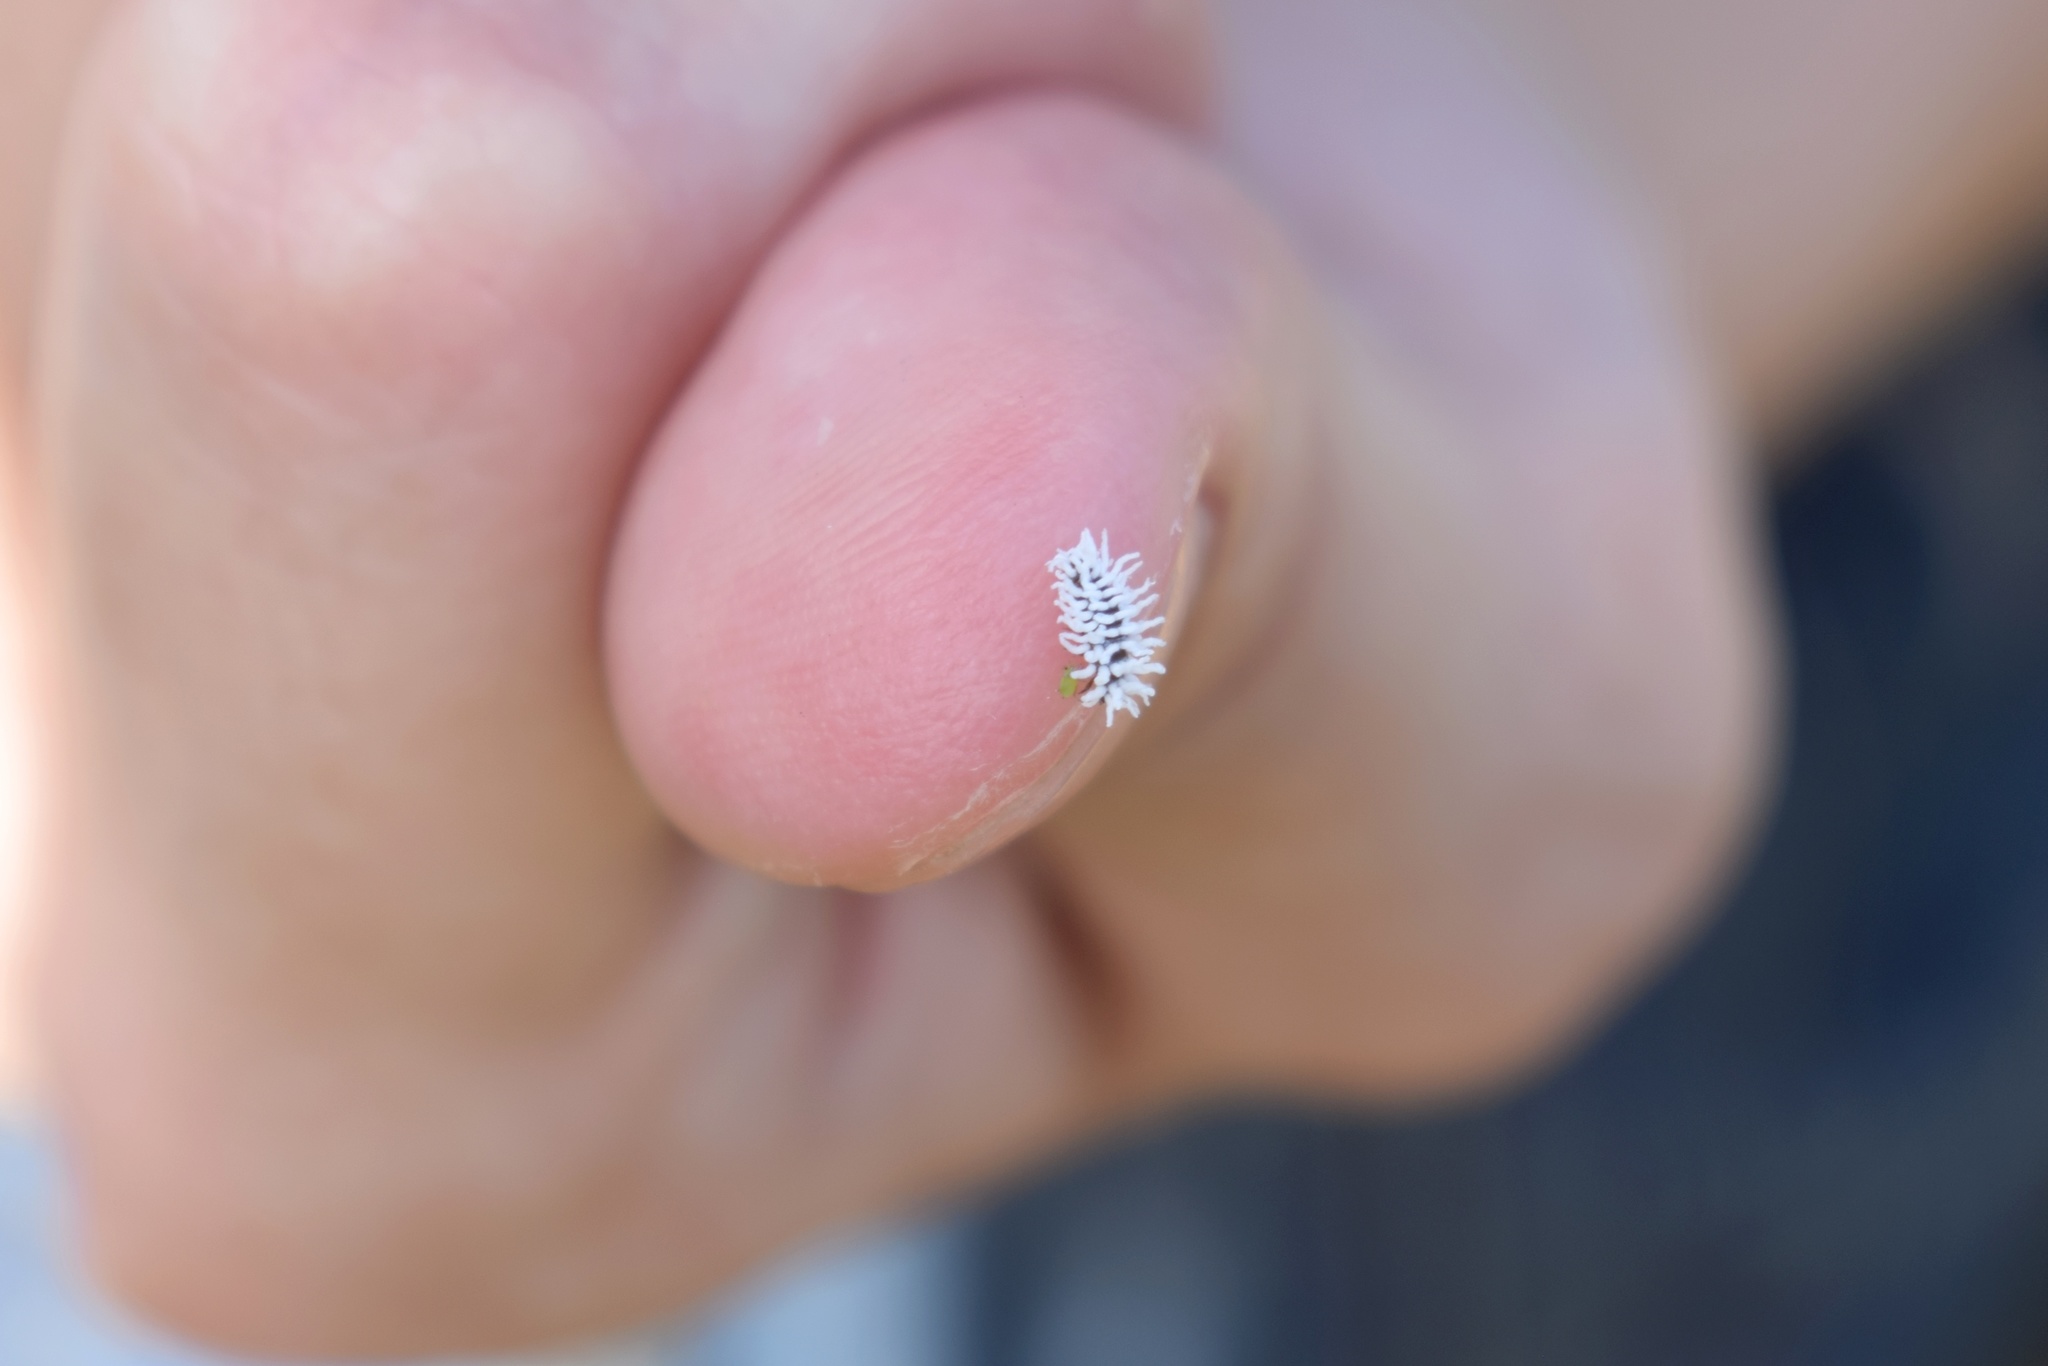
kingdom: Animalia
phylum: Arthropoda
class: Insecta
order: Coleoptera
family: Coccinellidae
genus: Cryptolaemus
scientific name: Cryptolaemus montrouzieri
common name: Mealybug destroyer
